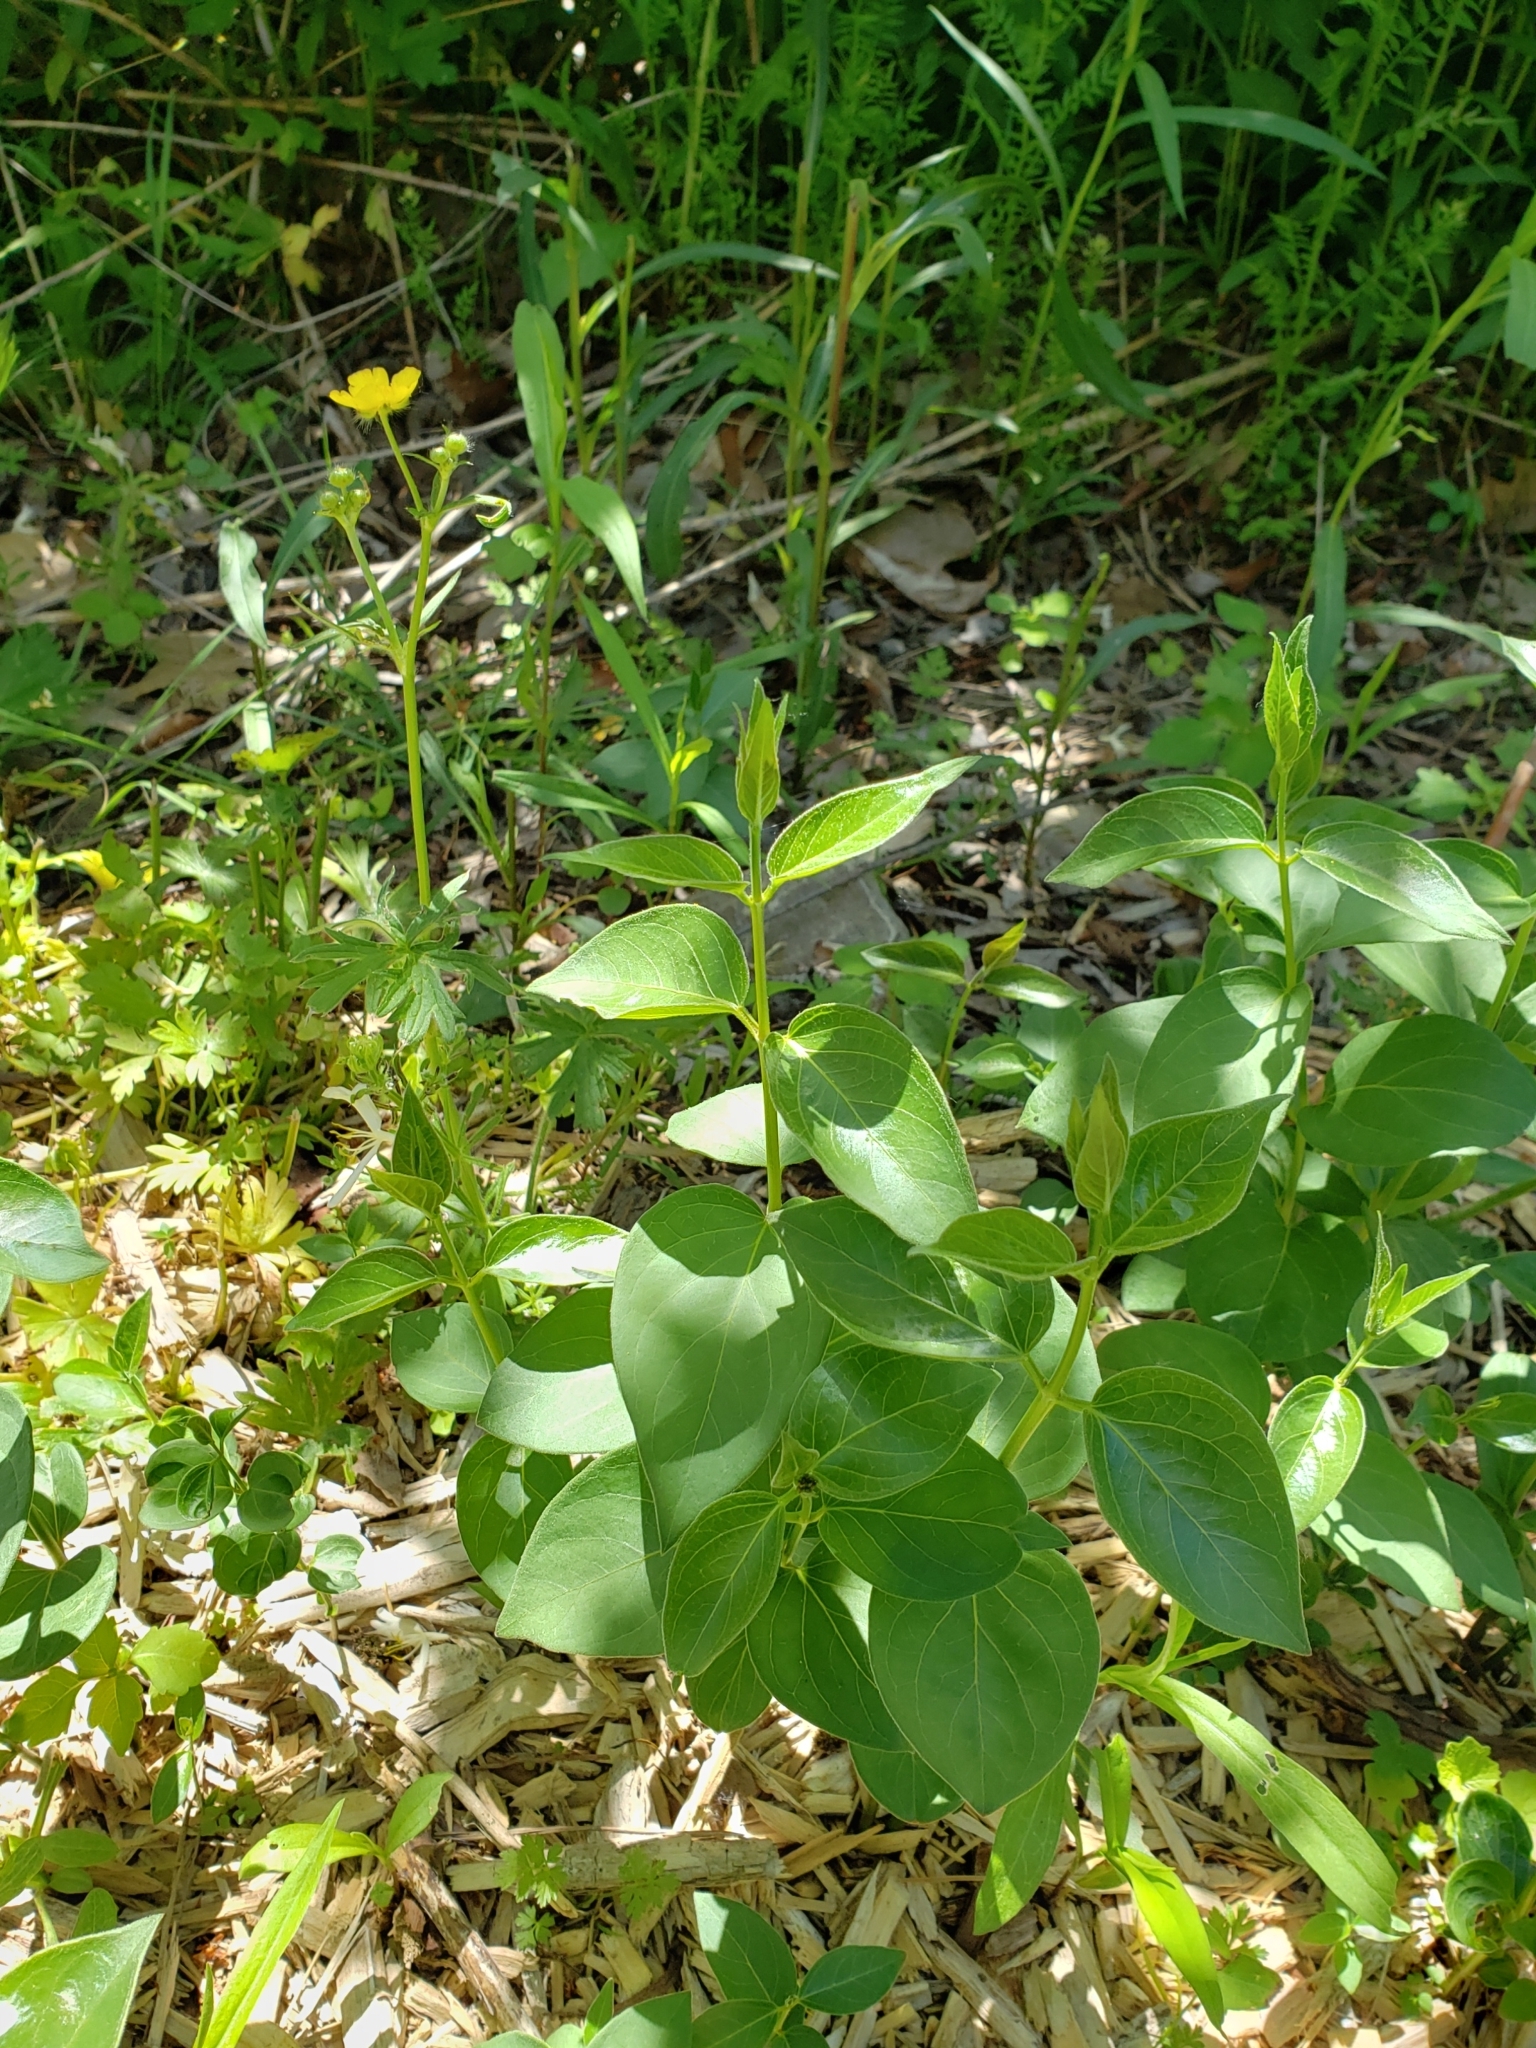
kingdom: Plantae
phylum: Tracheophyta
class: Magnoliopsida
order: Gentianales
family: Apocynaceae
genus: Vincetoxicum
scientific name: Vincetoxicum rossicum
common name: Dog-strangling vine
